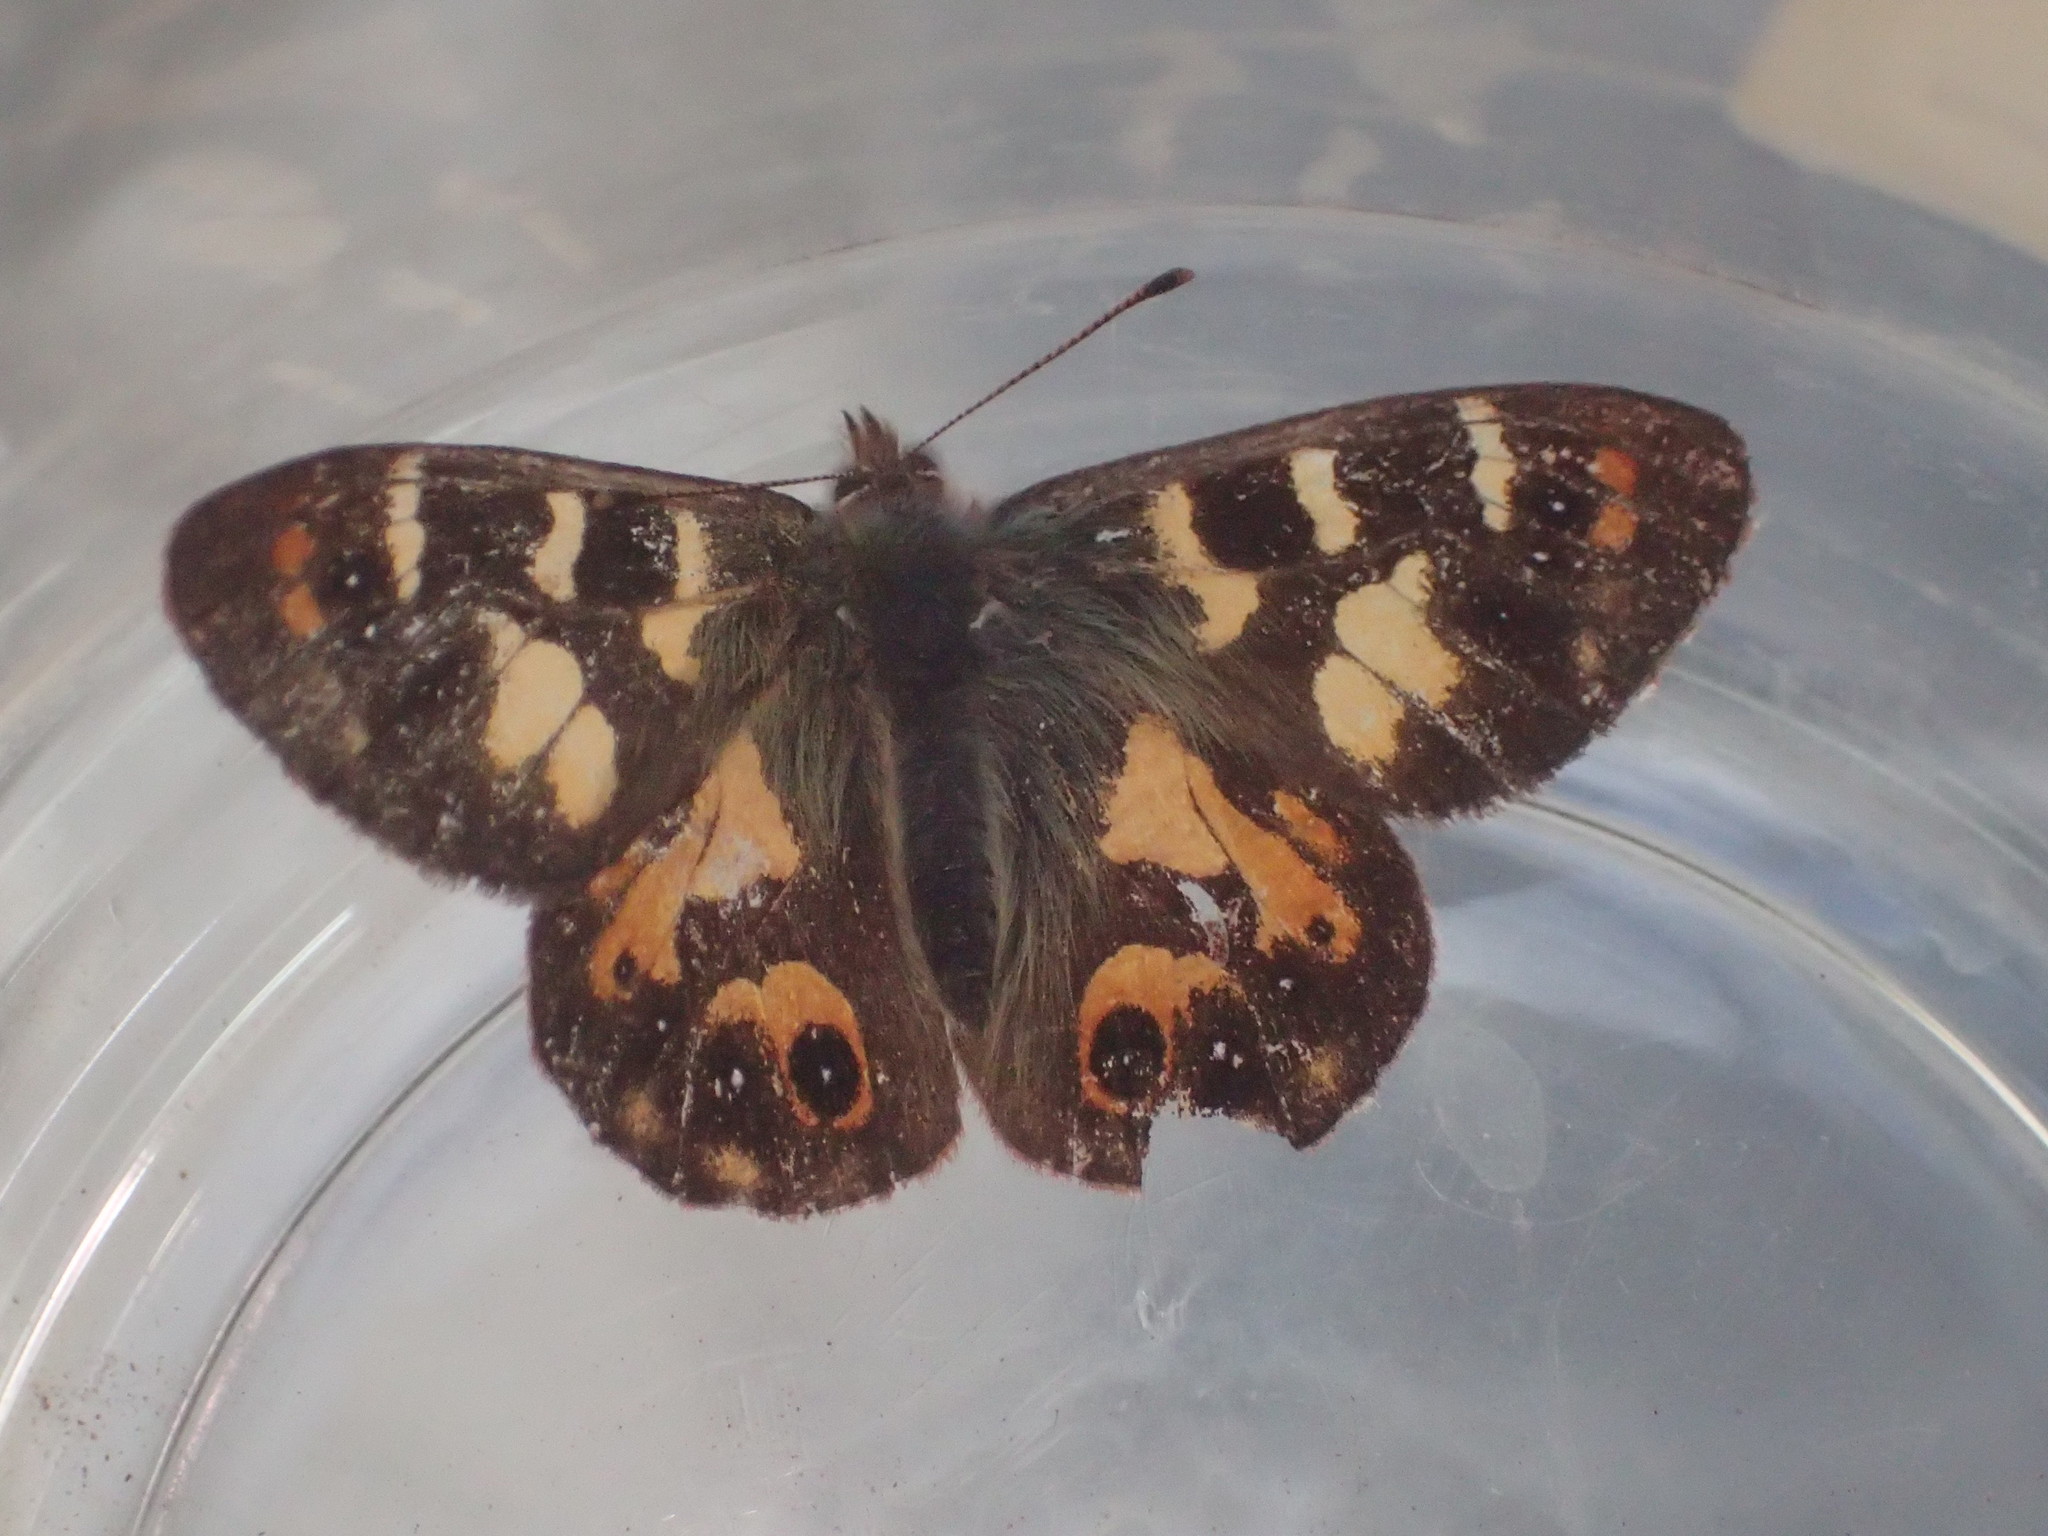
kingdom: Animalia
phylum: Arthropoda
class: Insecta
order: Lepidoptera
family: Nymphalidae
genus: Argynnina
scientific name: Argynnina hobartia
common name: Hobart brown
